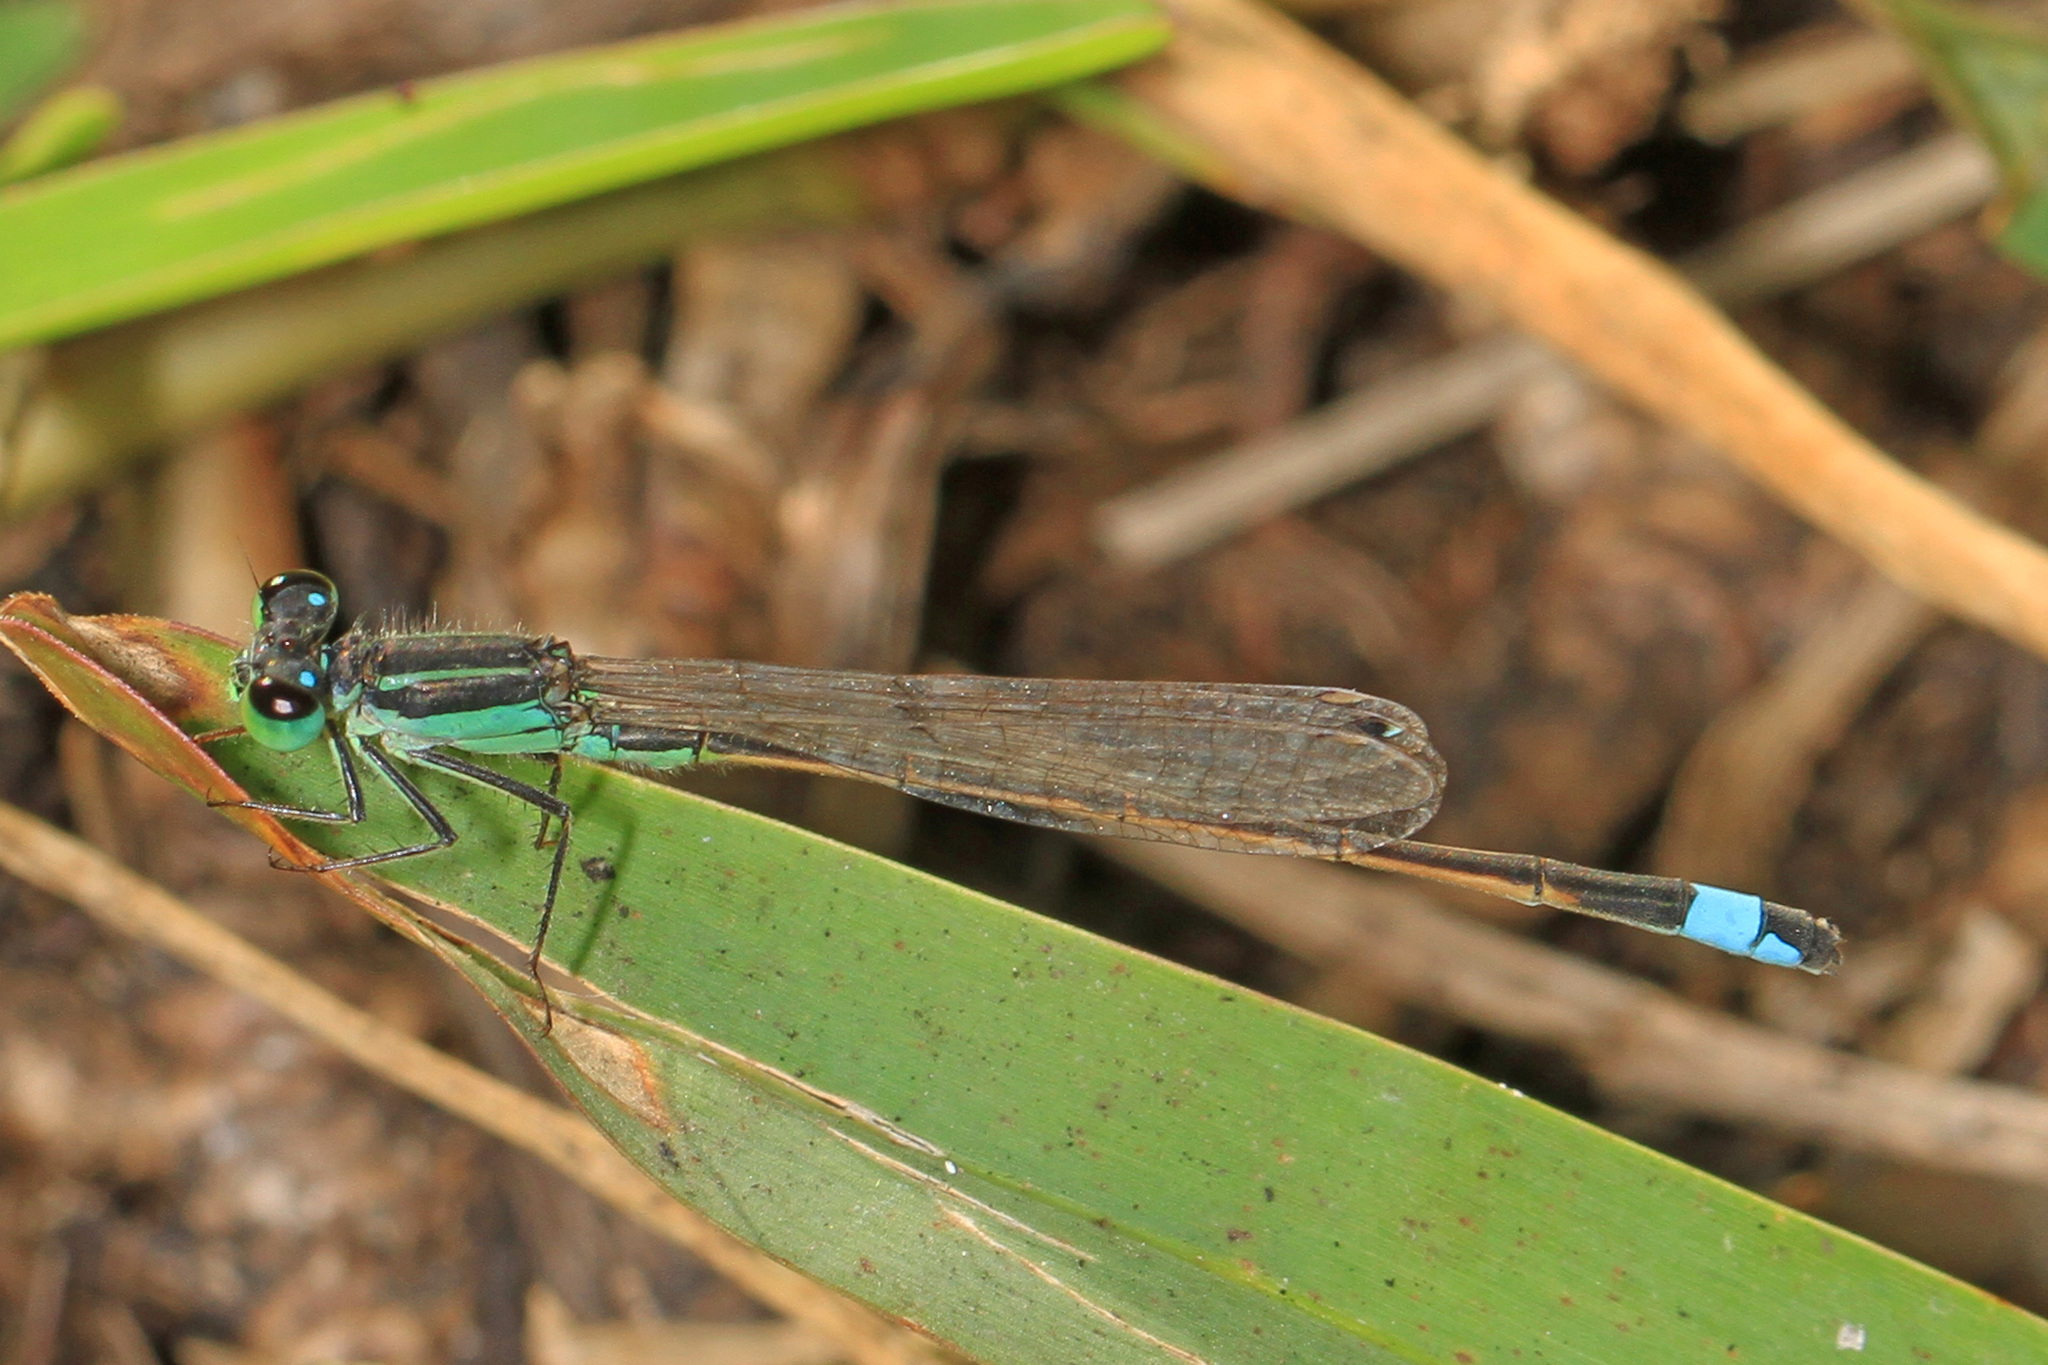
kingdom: Animalia
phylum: Arthropoda
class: Insecta
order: Odonata
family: Coenagrionidae
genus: Ischnura
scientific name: Ischnura ramburii
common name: Rambur's forktail
